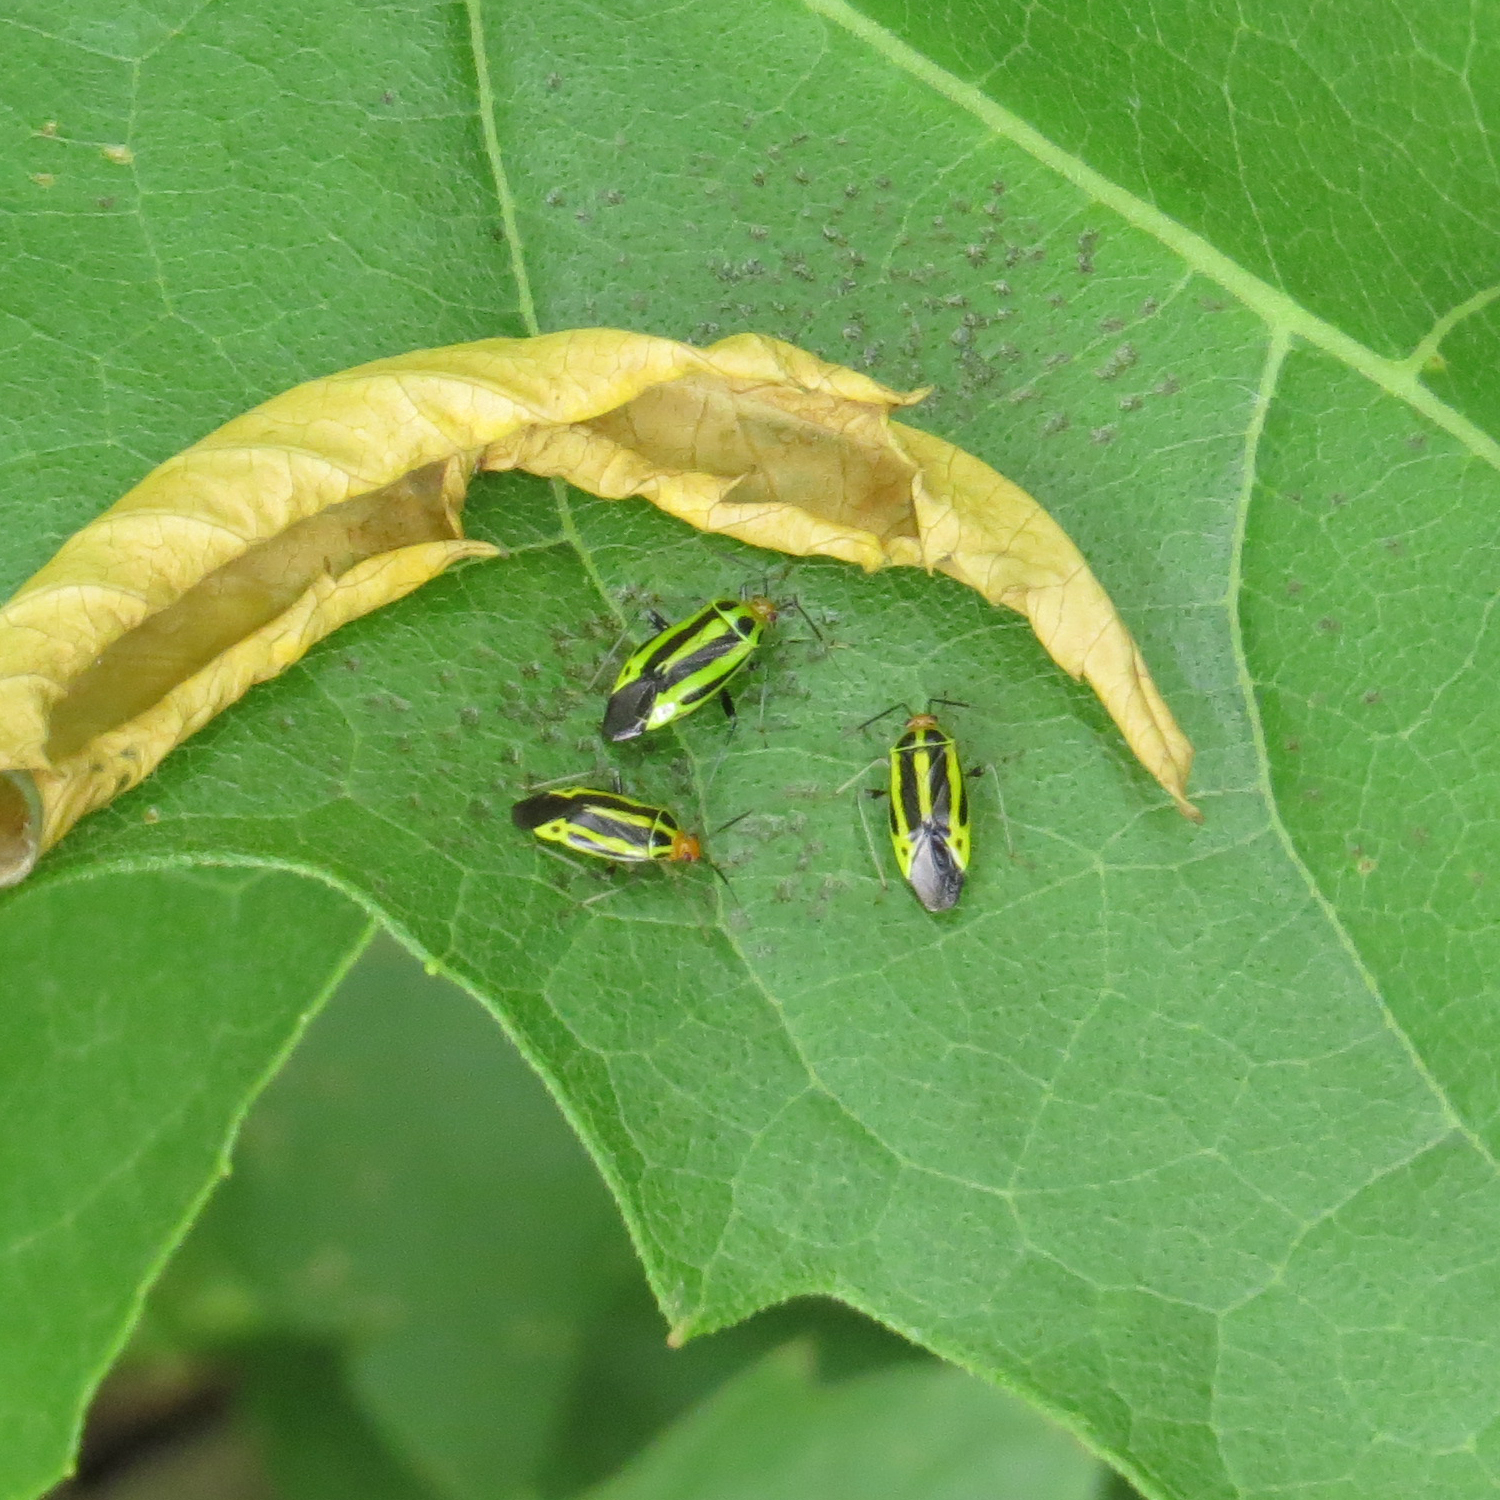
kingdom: Animalia
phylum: Arthropoda
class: Insecta
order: Hemiptera
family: Miridae
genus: Poecilocapsus
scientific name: Poecilocapsus lineatus
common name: Four-lined plant bug
